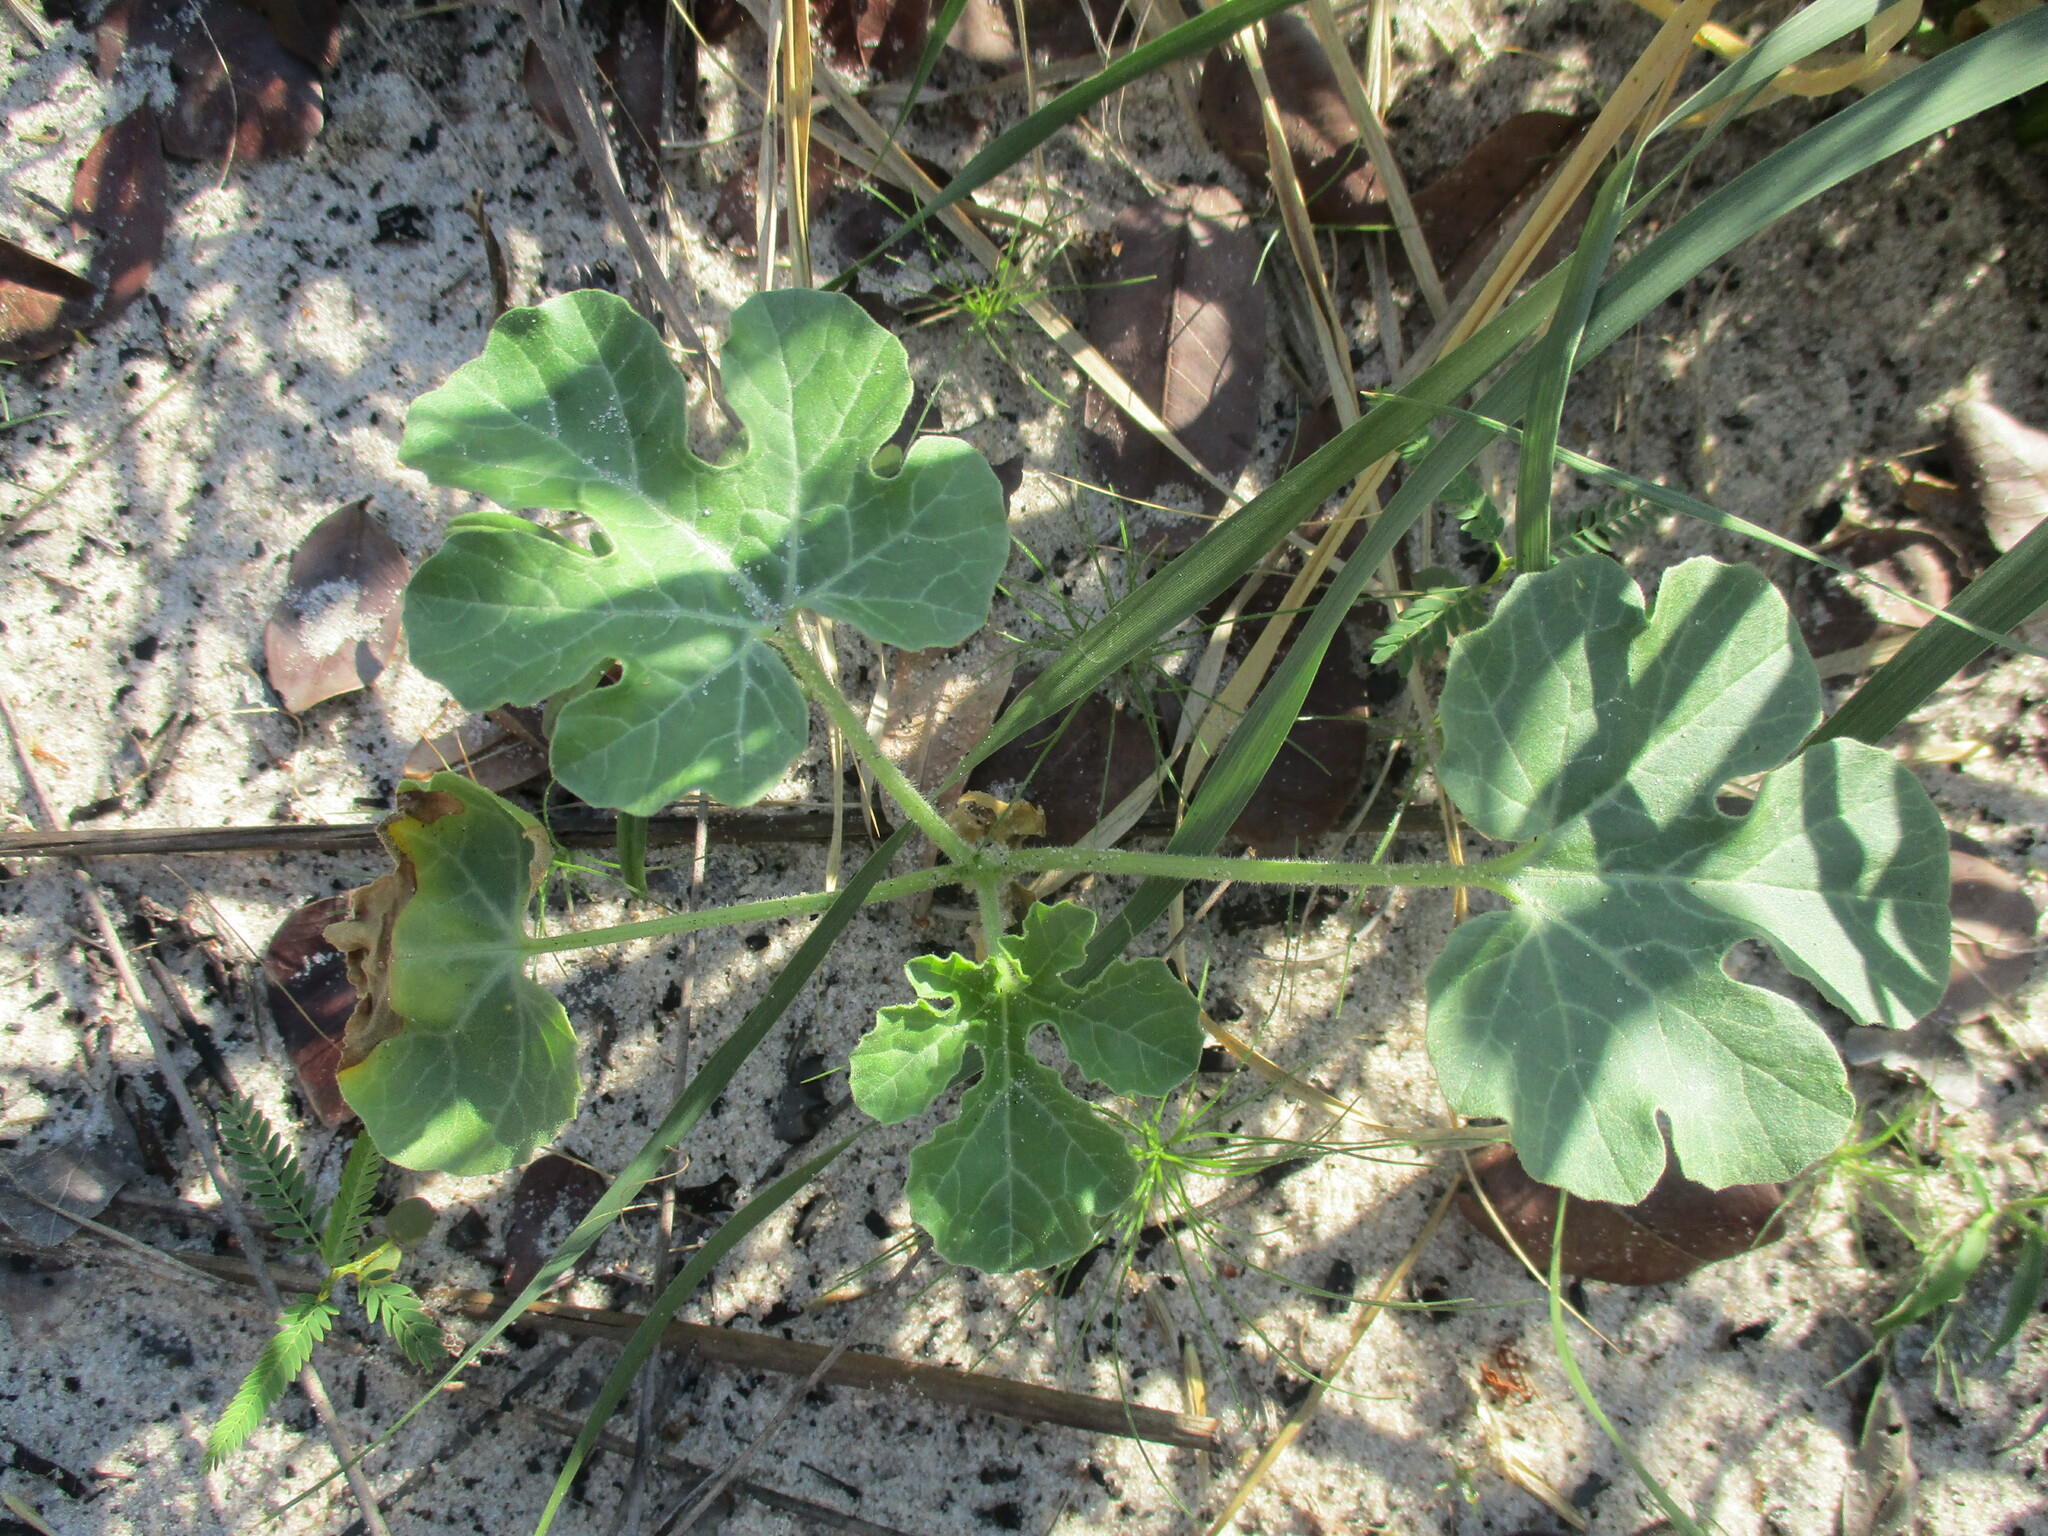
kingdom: Plantae
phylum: Tracheophyta
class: Magnoliopsida
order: Cucurbitales
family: Cucurbitaceae
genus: Citrullus
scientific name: Citrullus amarus
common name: Fodder-melon
